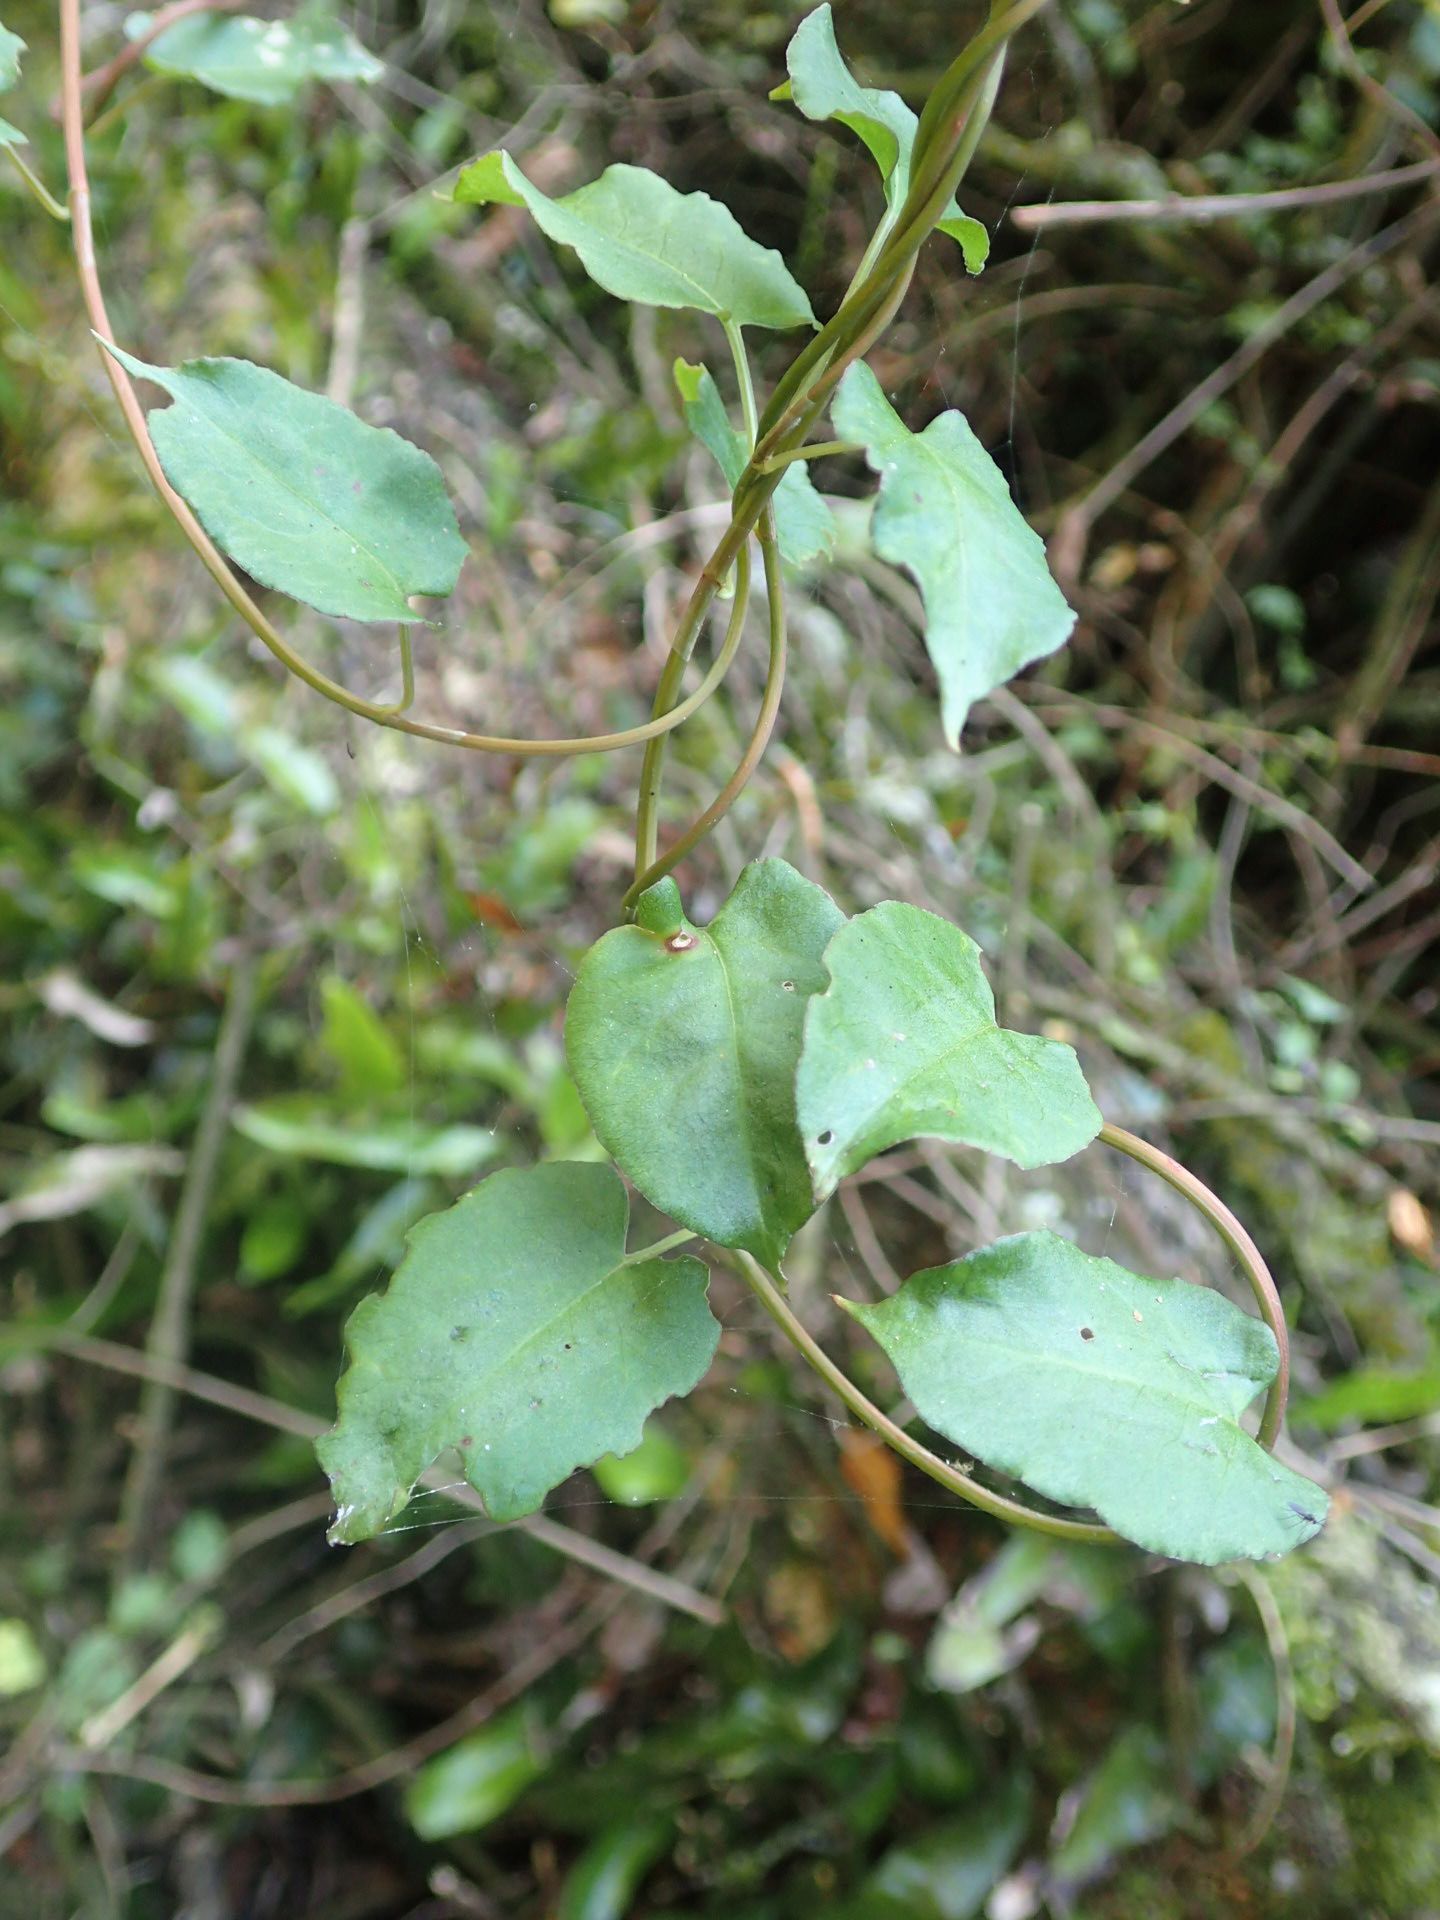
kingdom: Plantae
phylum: Tracheophyta
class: Magnoliopsida
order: Caryophyllales
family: Polygonaceae
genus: Muehlenbeckia
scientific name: Muehlenbeckia australis
